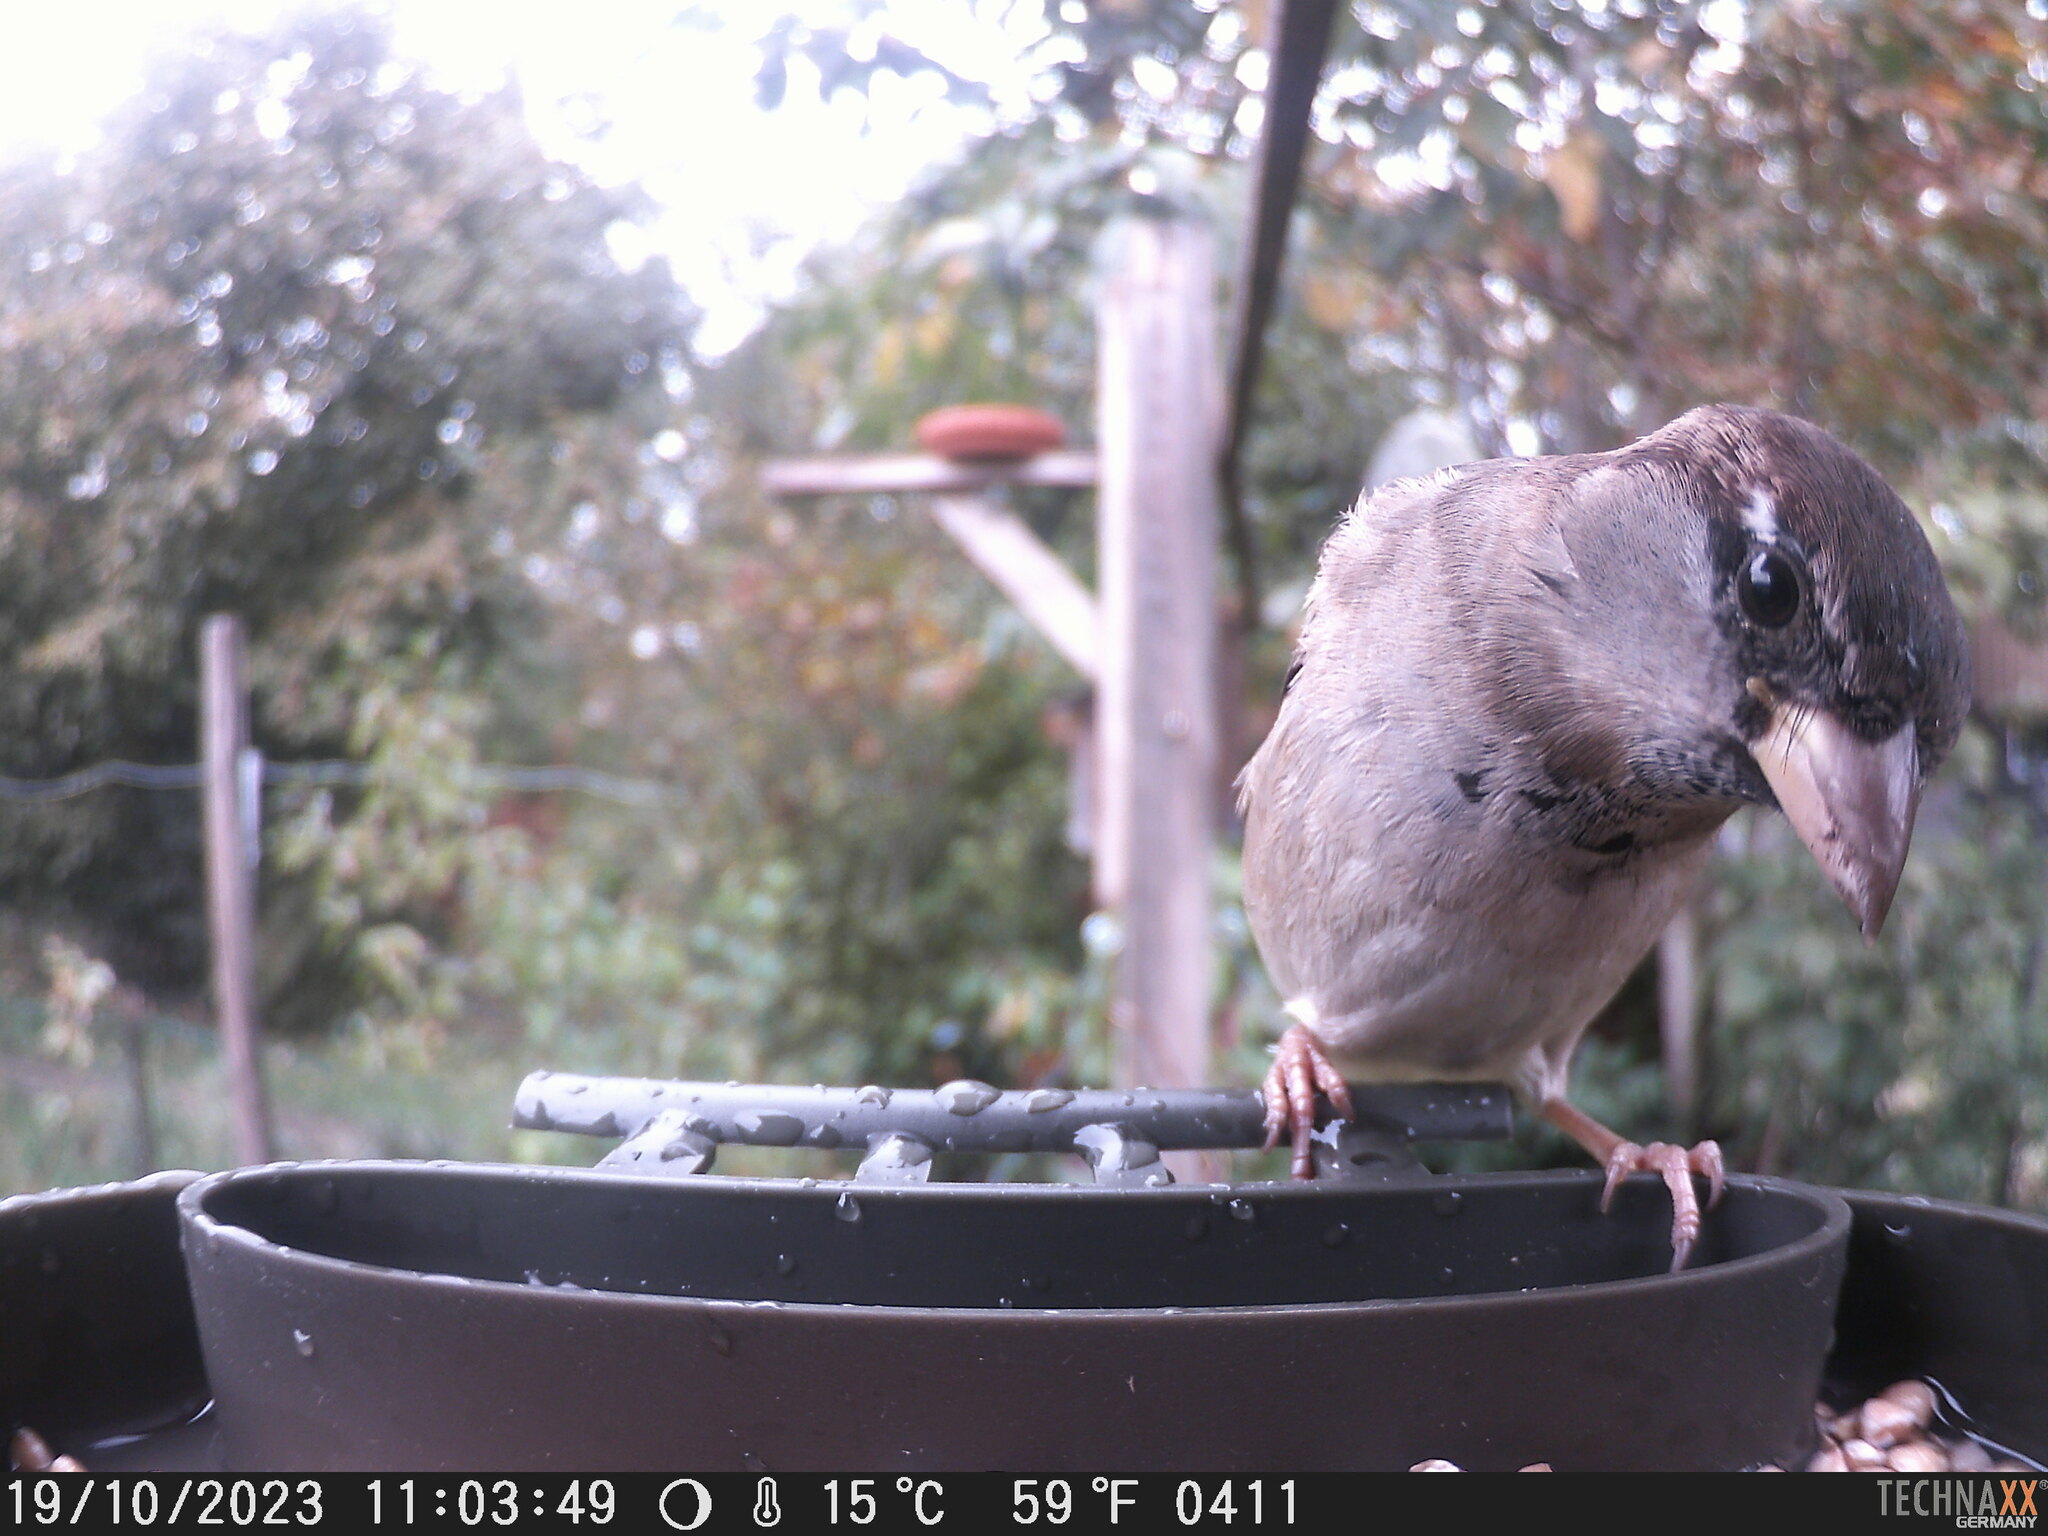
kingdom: Animalia
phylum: Chordata
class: Aves
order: Passeriformes
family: Passeridae
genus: Passer
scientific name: Passer domesticus
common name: House sparrow
